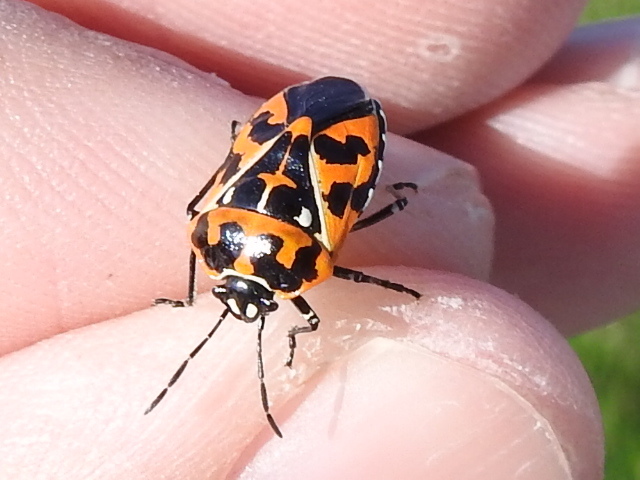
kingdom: Animalia
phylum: Arthropoda
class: Insecta
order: Hemiptera
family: Pentatomidae
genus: Murgantia
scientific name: Murgantia histrionica
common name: Harlequin bug
